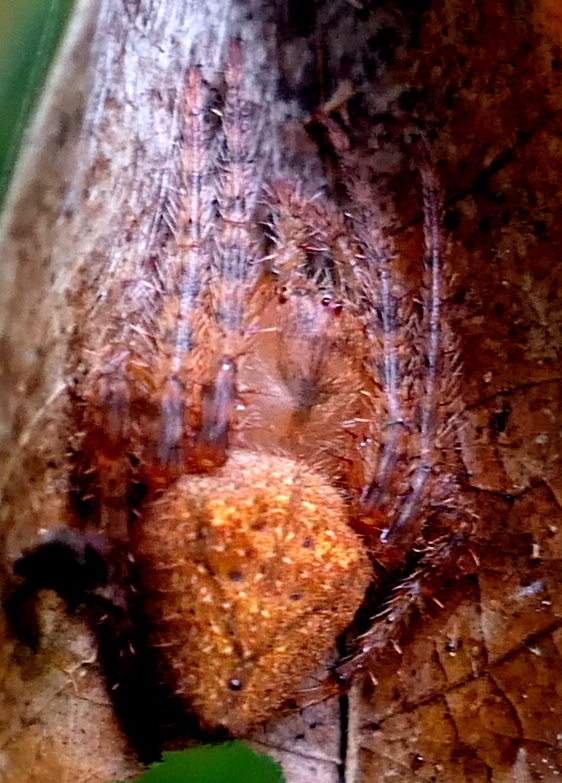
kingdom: Animalia
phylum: Arthropoda
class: Arachnida
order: Araneae
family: Araneidae
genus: Eriophora
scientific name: Eriophora edax
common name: Orb weavers
